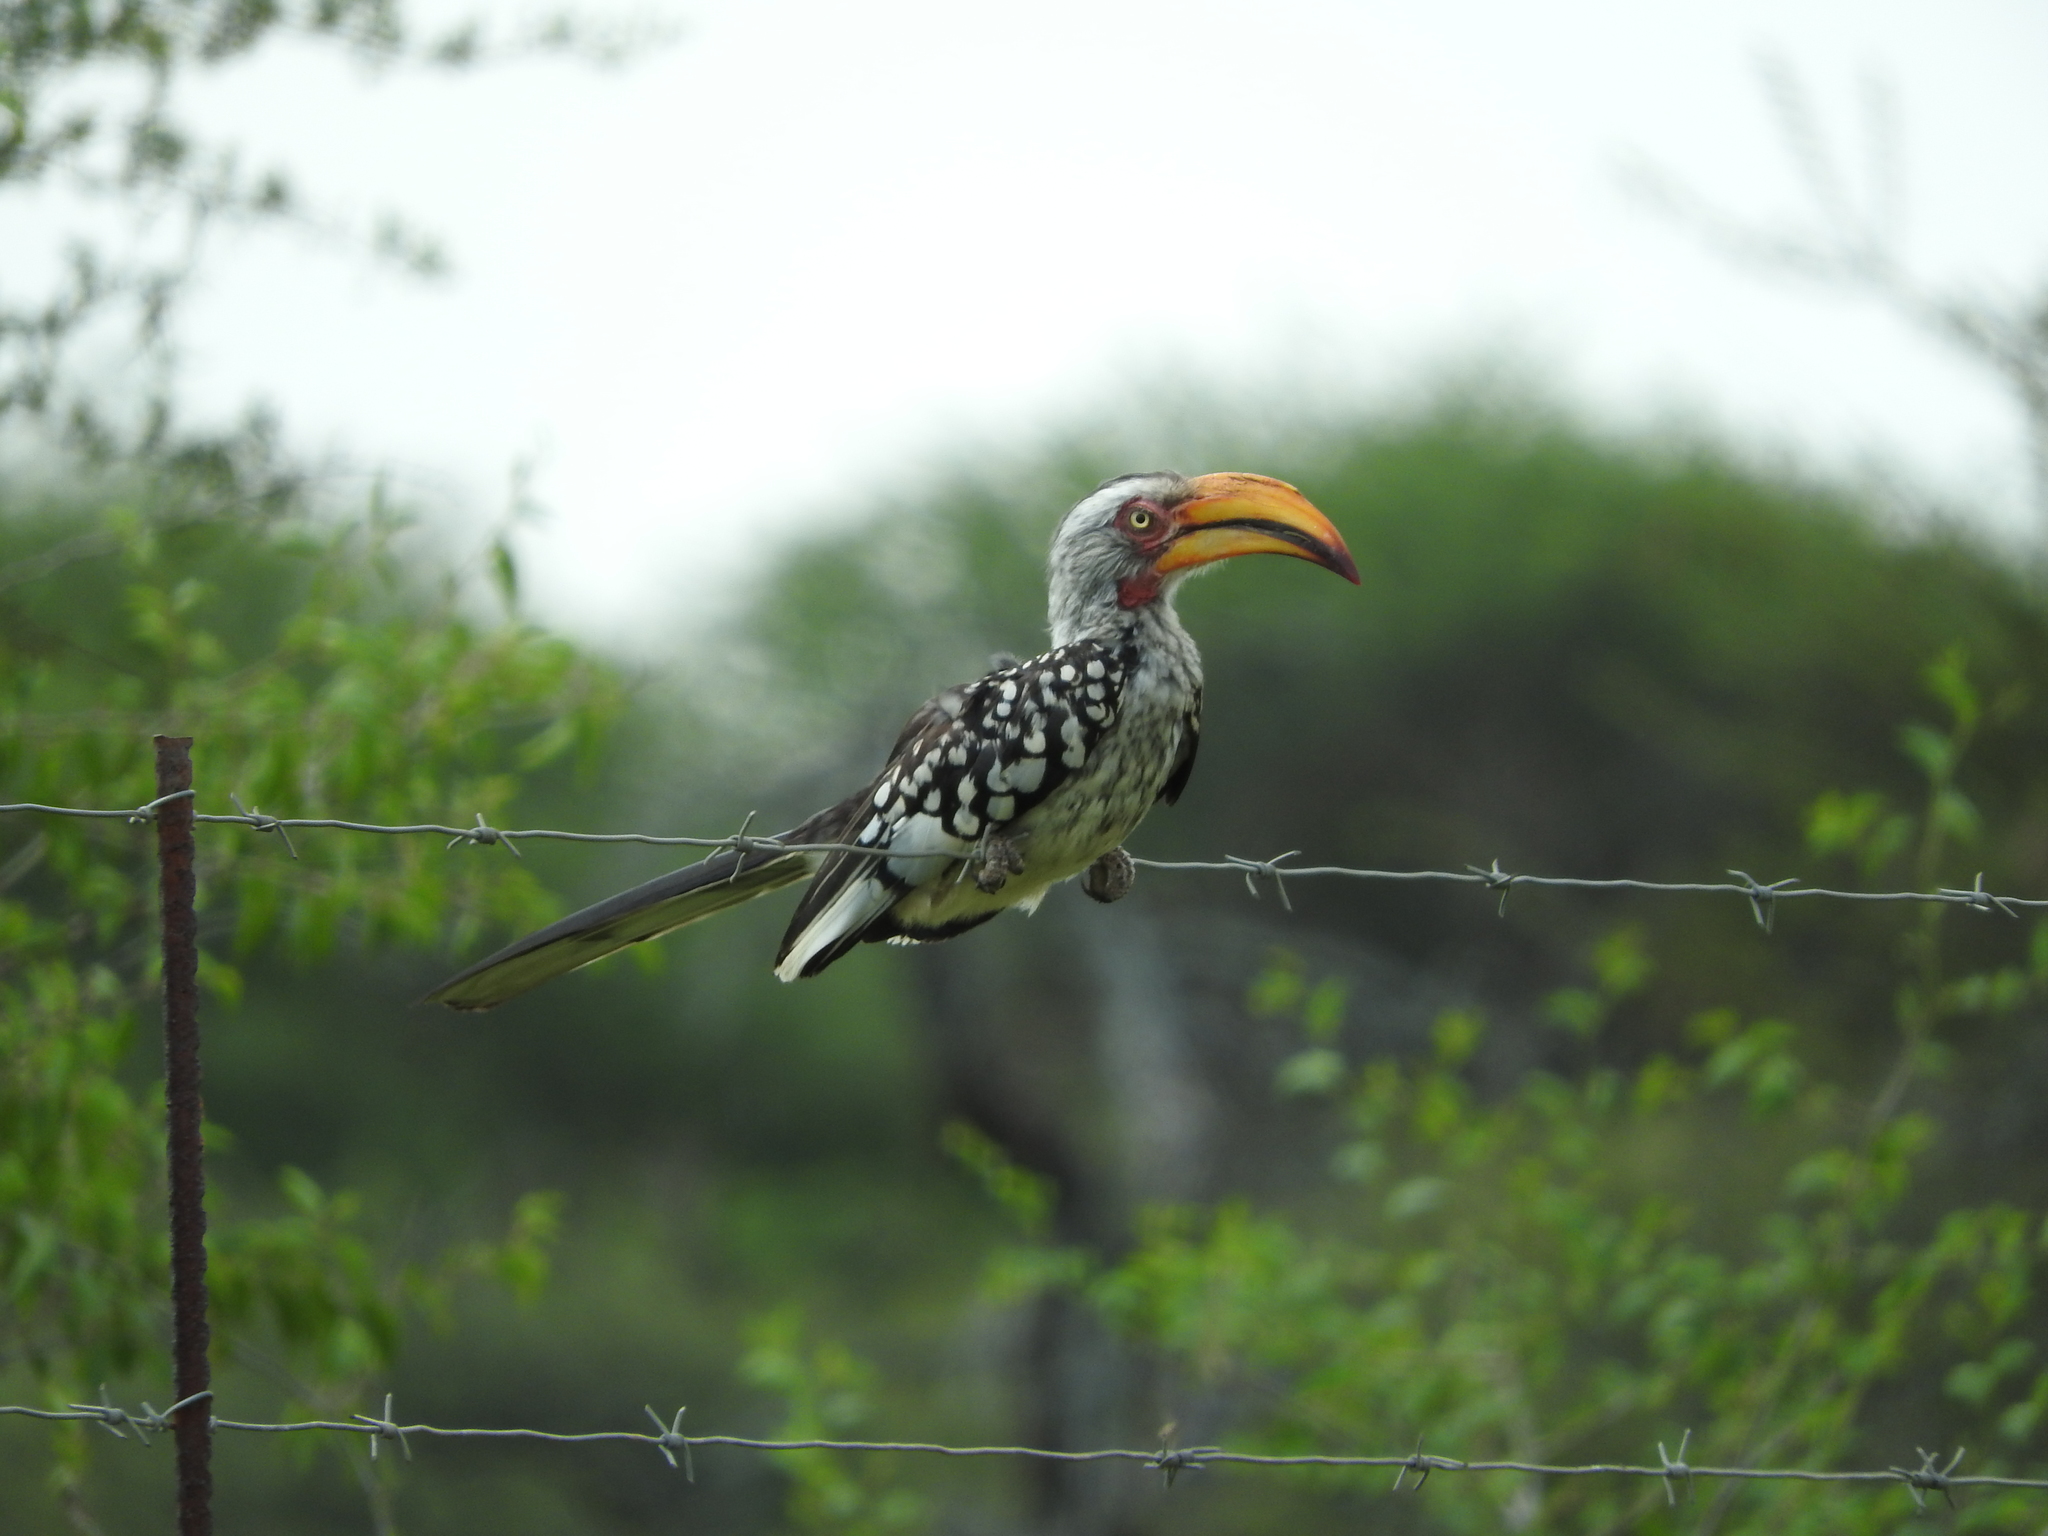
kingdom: Animalia
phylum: Chordata
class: Aves
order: Bucerotiformes
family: Bucerotidae
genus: Tockus
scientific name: Tockus leucomelas
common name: Southern yellow-billed hornbill
